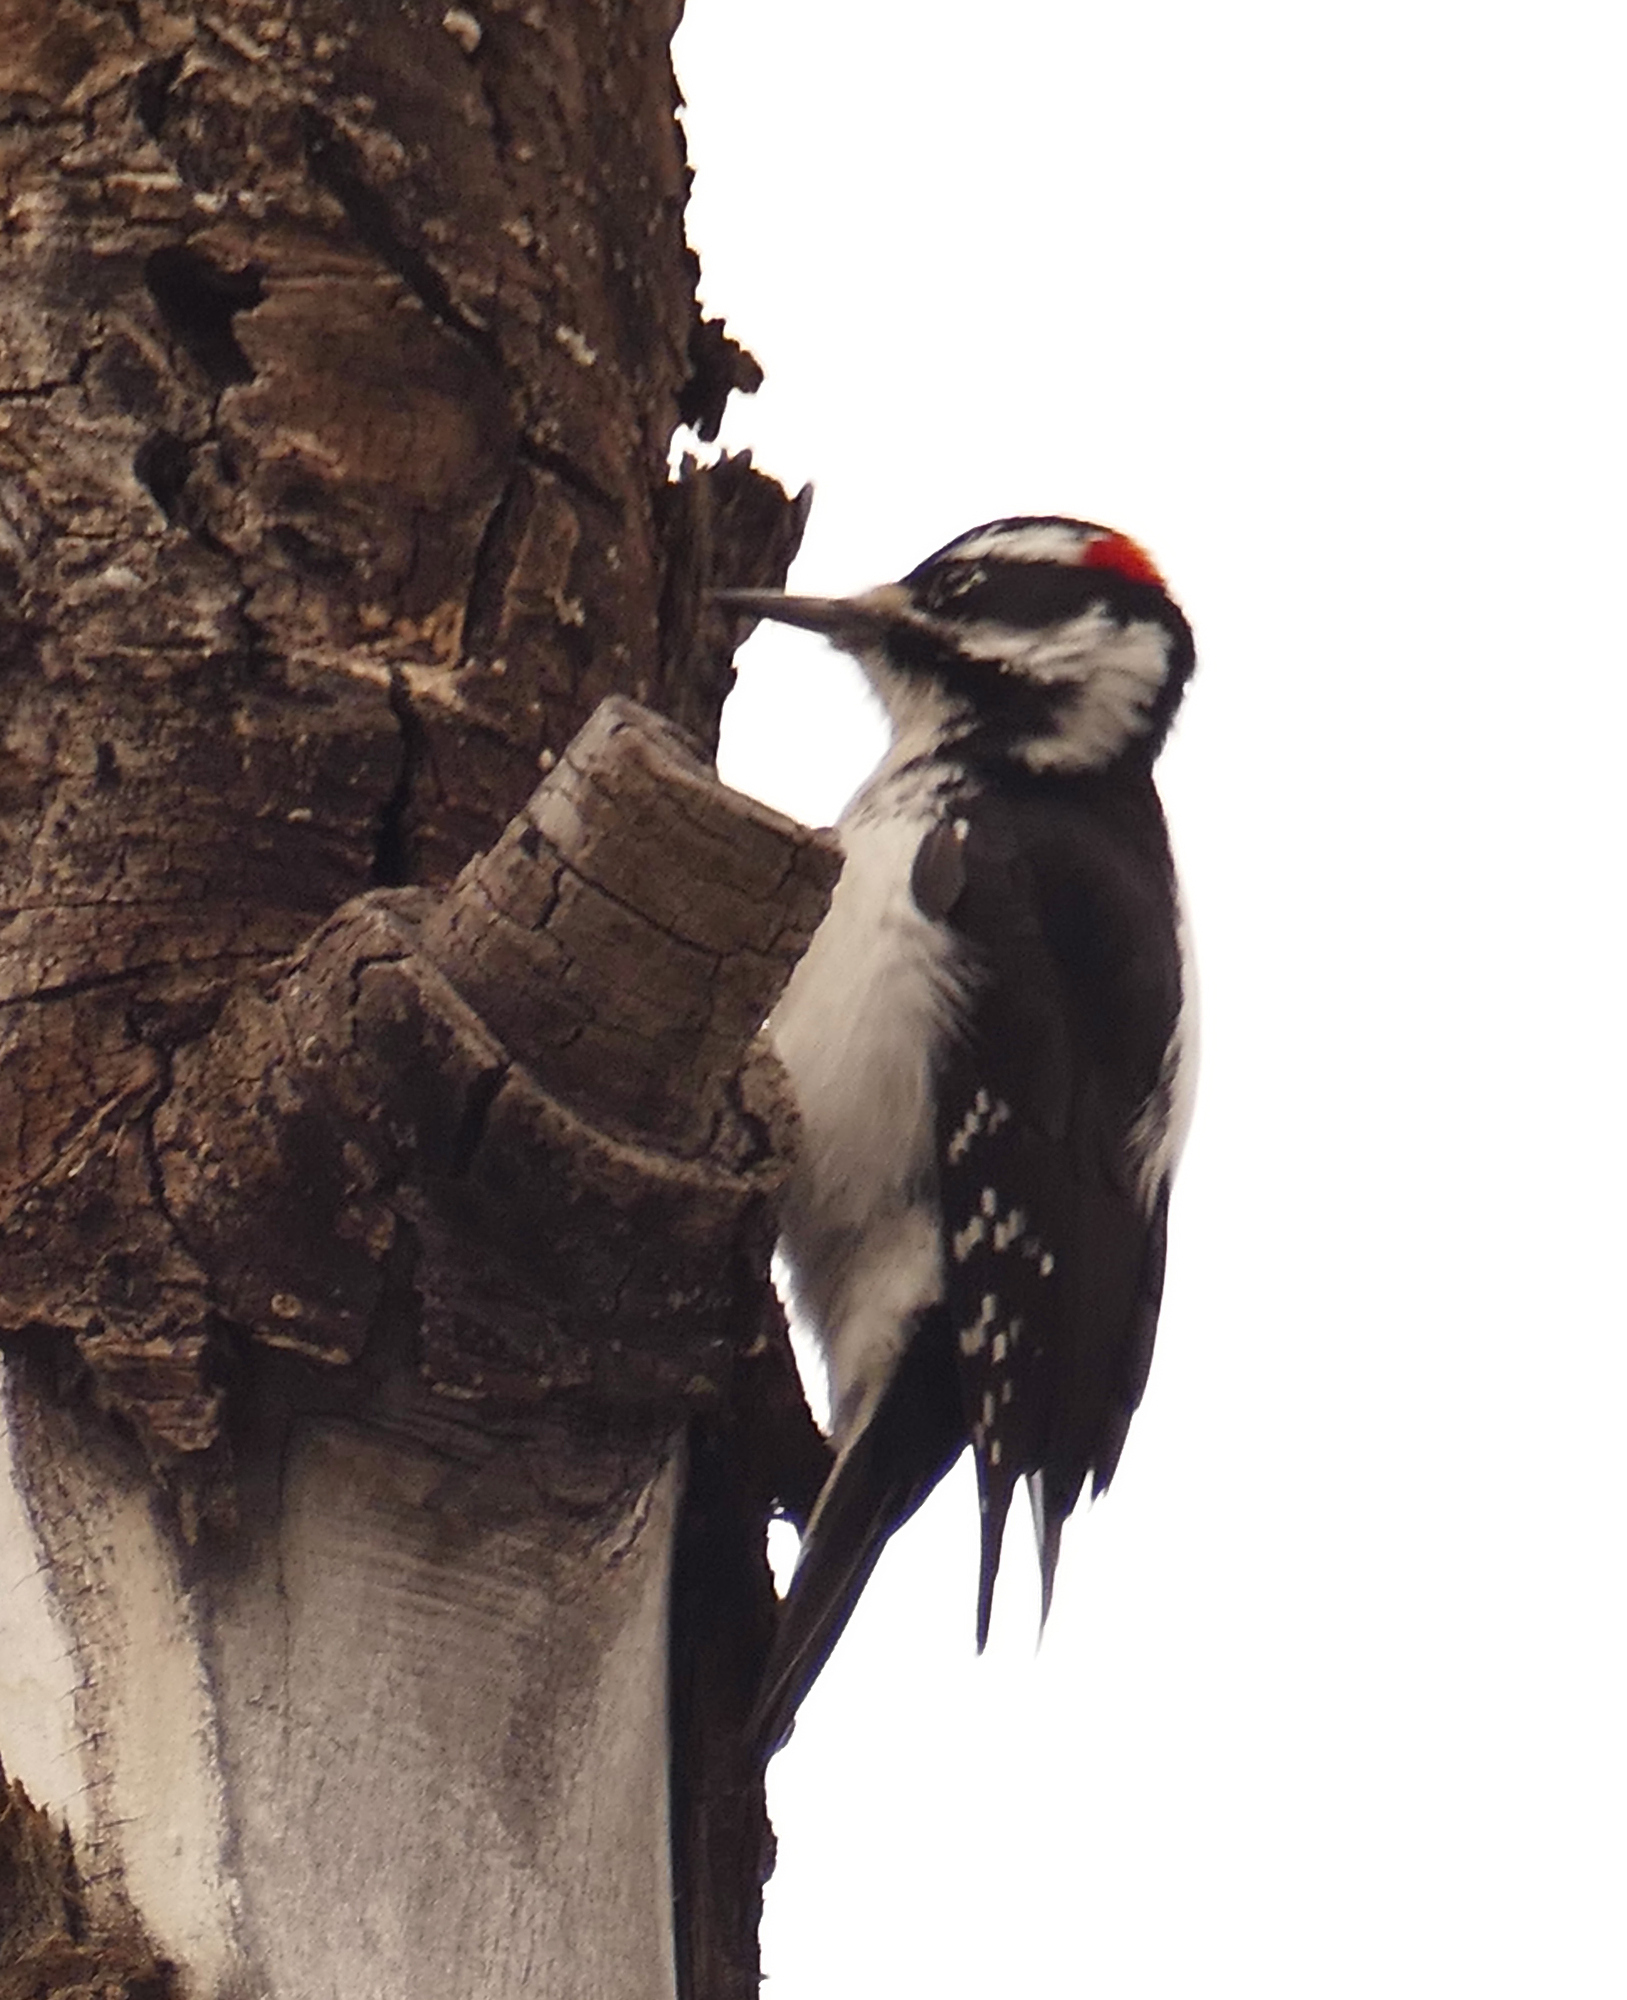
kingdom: Animalia
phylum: Chordata
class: Aves
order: Piciformes
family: Picidae
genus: Leuconotopicus
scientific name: Leuconotopicus villosus
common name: Hairy woodpecker
